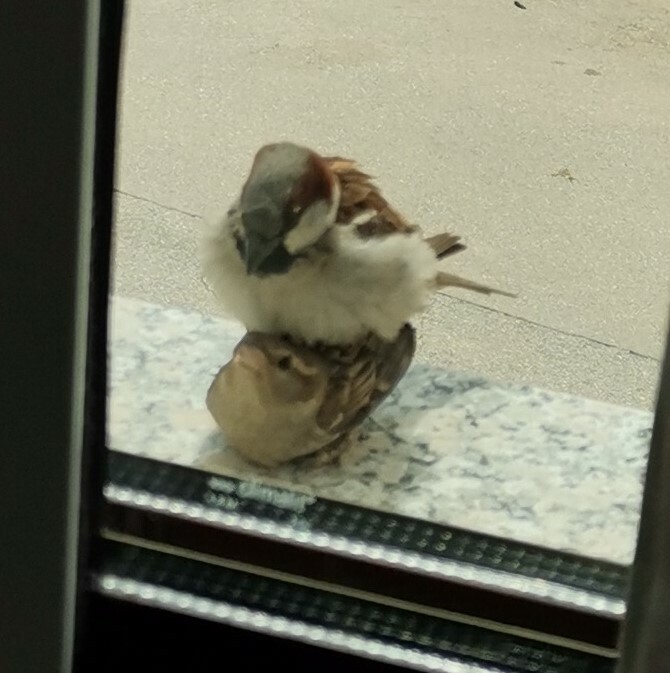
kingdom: Animalia
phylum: Chordata
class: Aves
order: Passeriformes
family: Passeridae
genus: Passer
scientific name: Passer domesticus
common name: House sparrow
